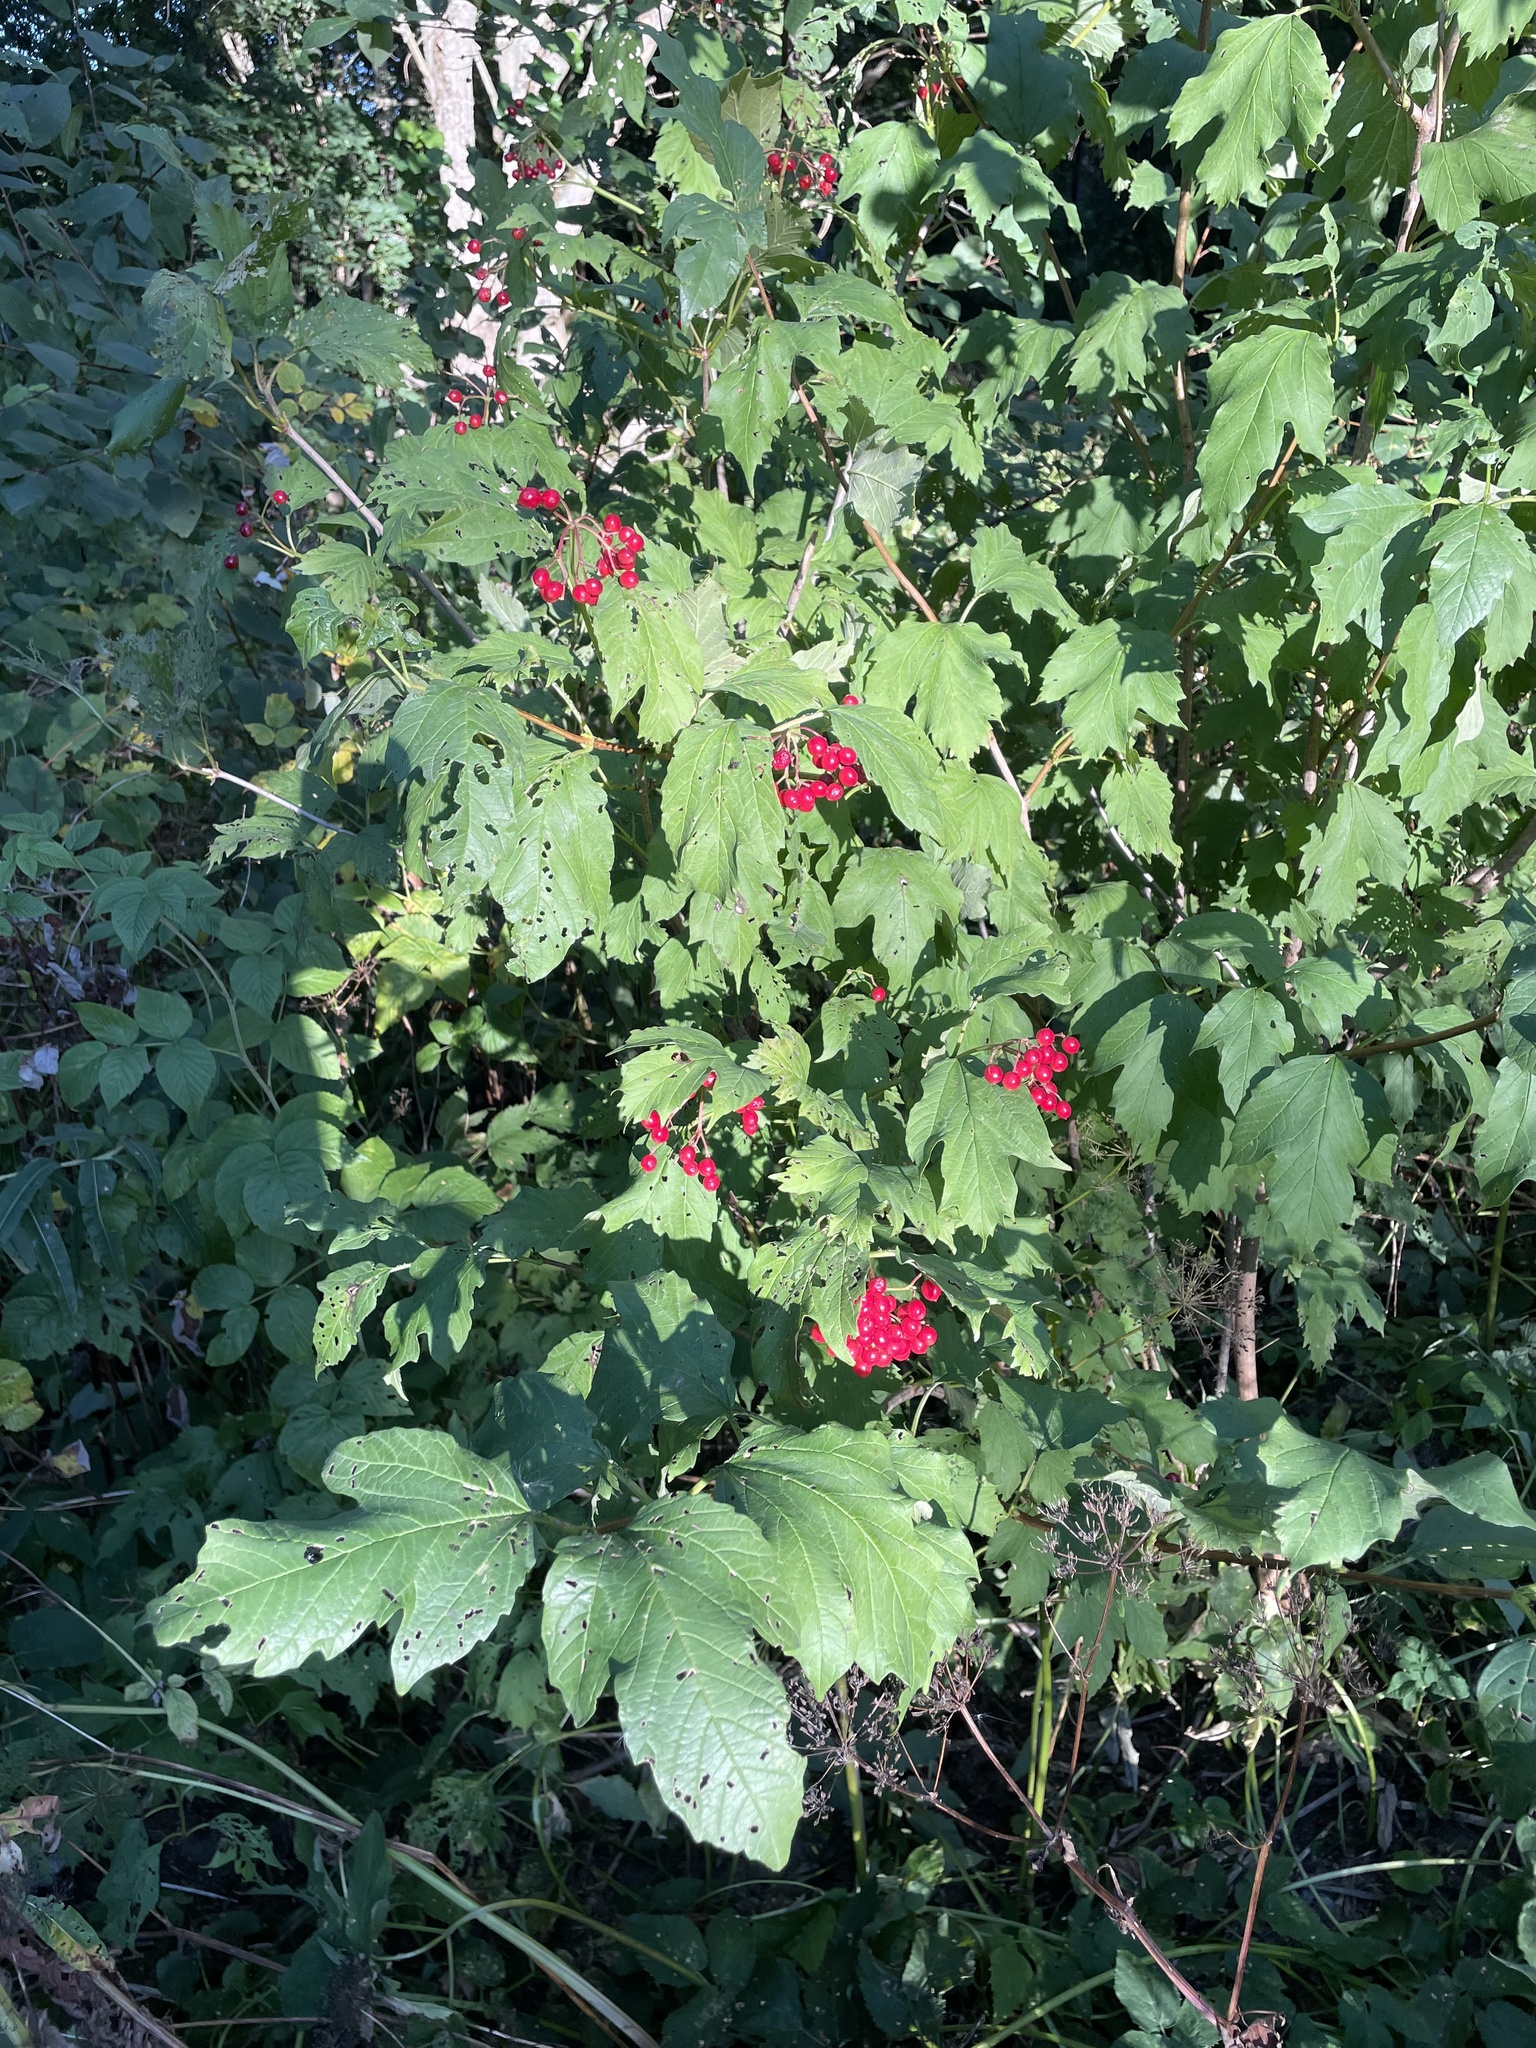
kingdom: Plantae
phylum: Tracheophyta
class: Magnoliopsida
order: Dipsacales
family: Viburnaceae
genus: Viburnum
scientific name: Viburnum opulus
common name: Guelder-rose
